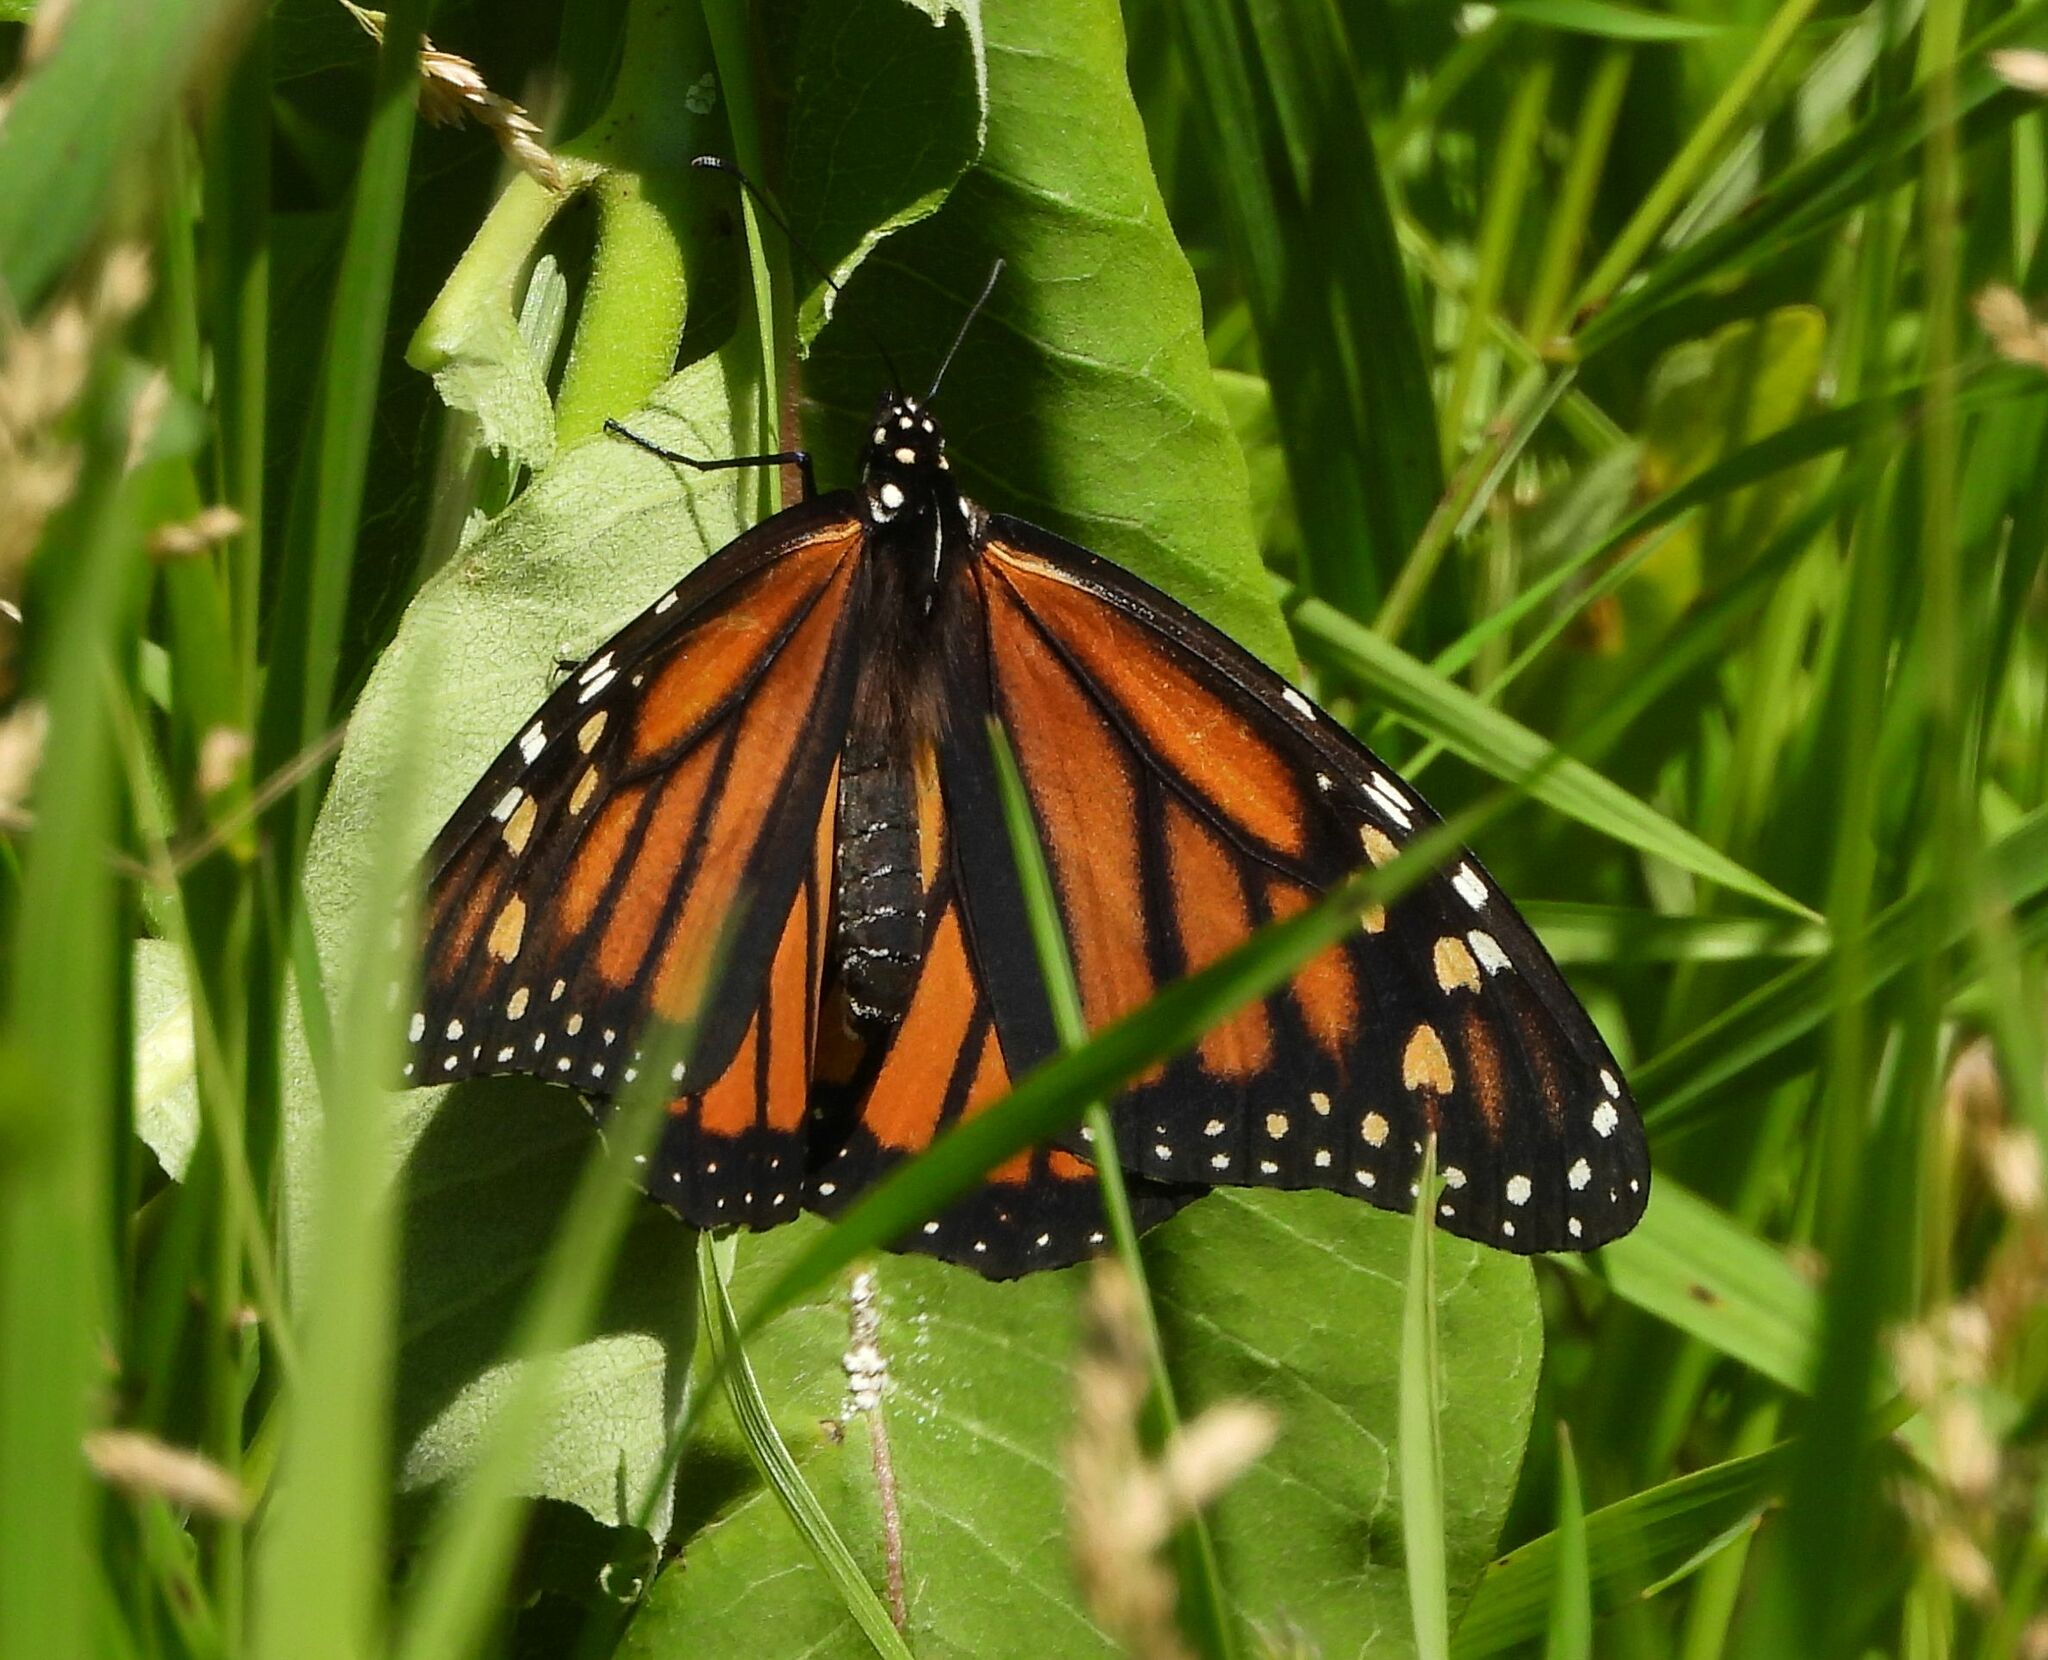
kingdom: Animalia
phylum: Arthropoda
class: Insecta
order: Lepidoptera
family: Nymphalidae
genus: Danaus
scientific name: Danaus plexippus
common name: Monarch
